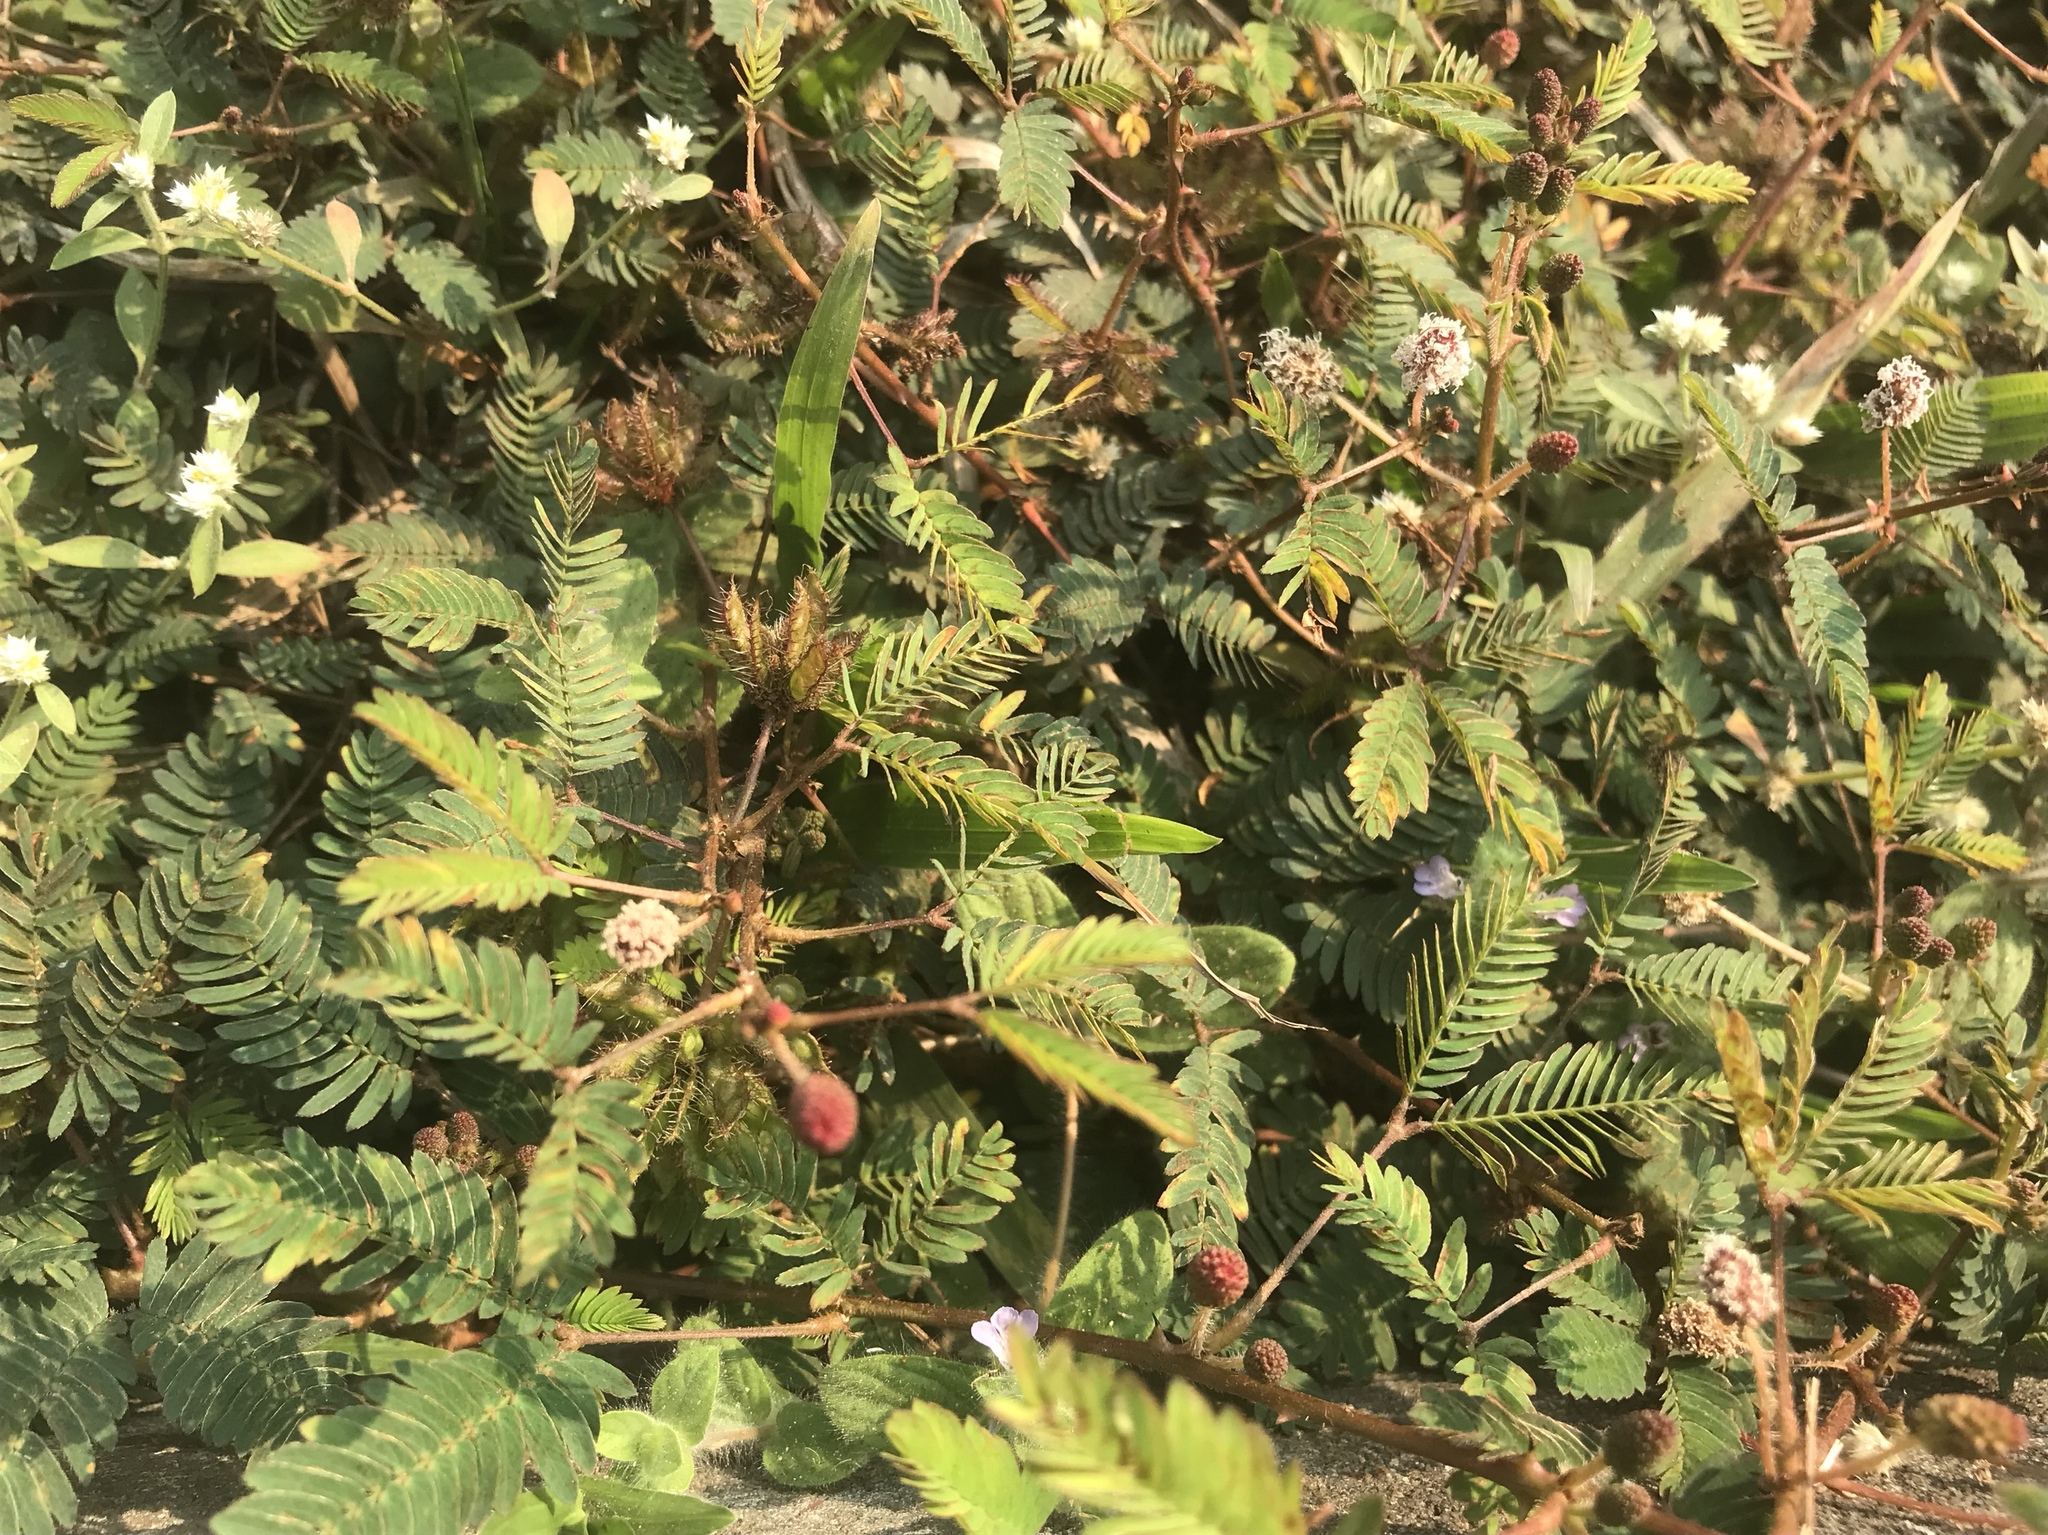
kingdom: Plantae
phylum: Tracheophyta
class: Magnoliopsida
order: Fabales
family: Fabaceae
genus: Mimosa
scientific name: Mimosa pudica
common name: Sensitive plant
